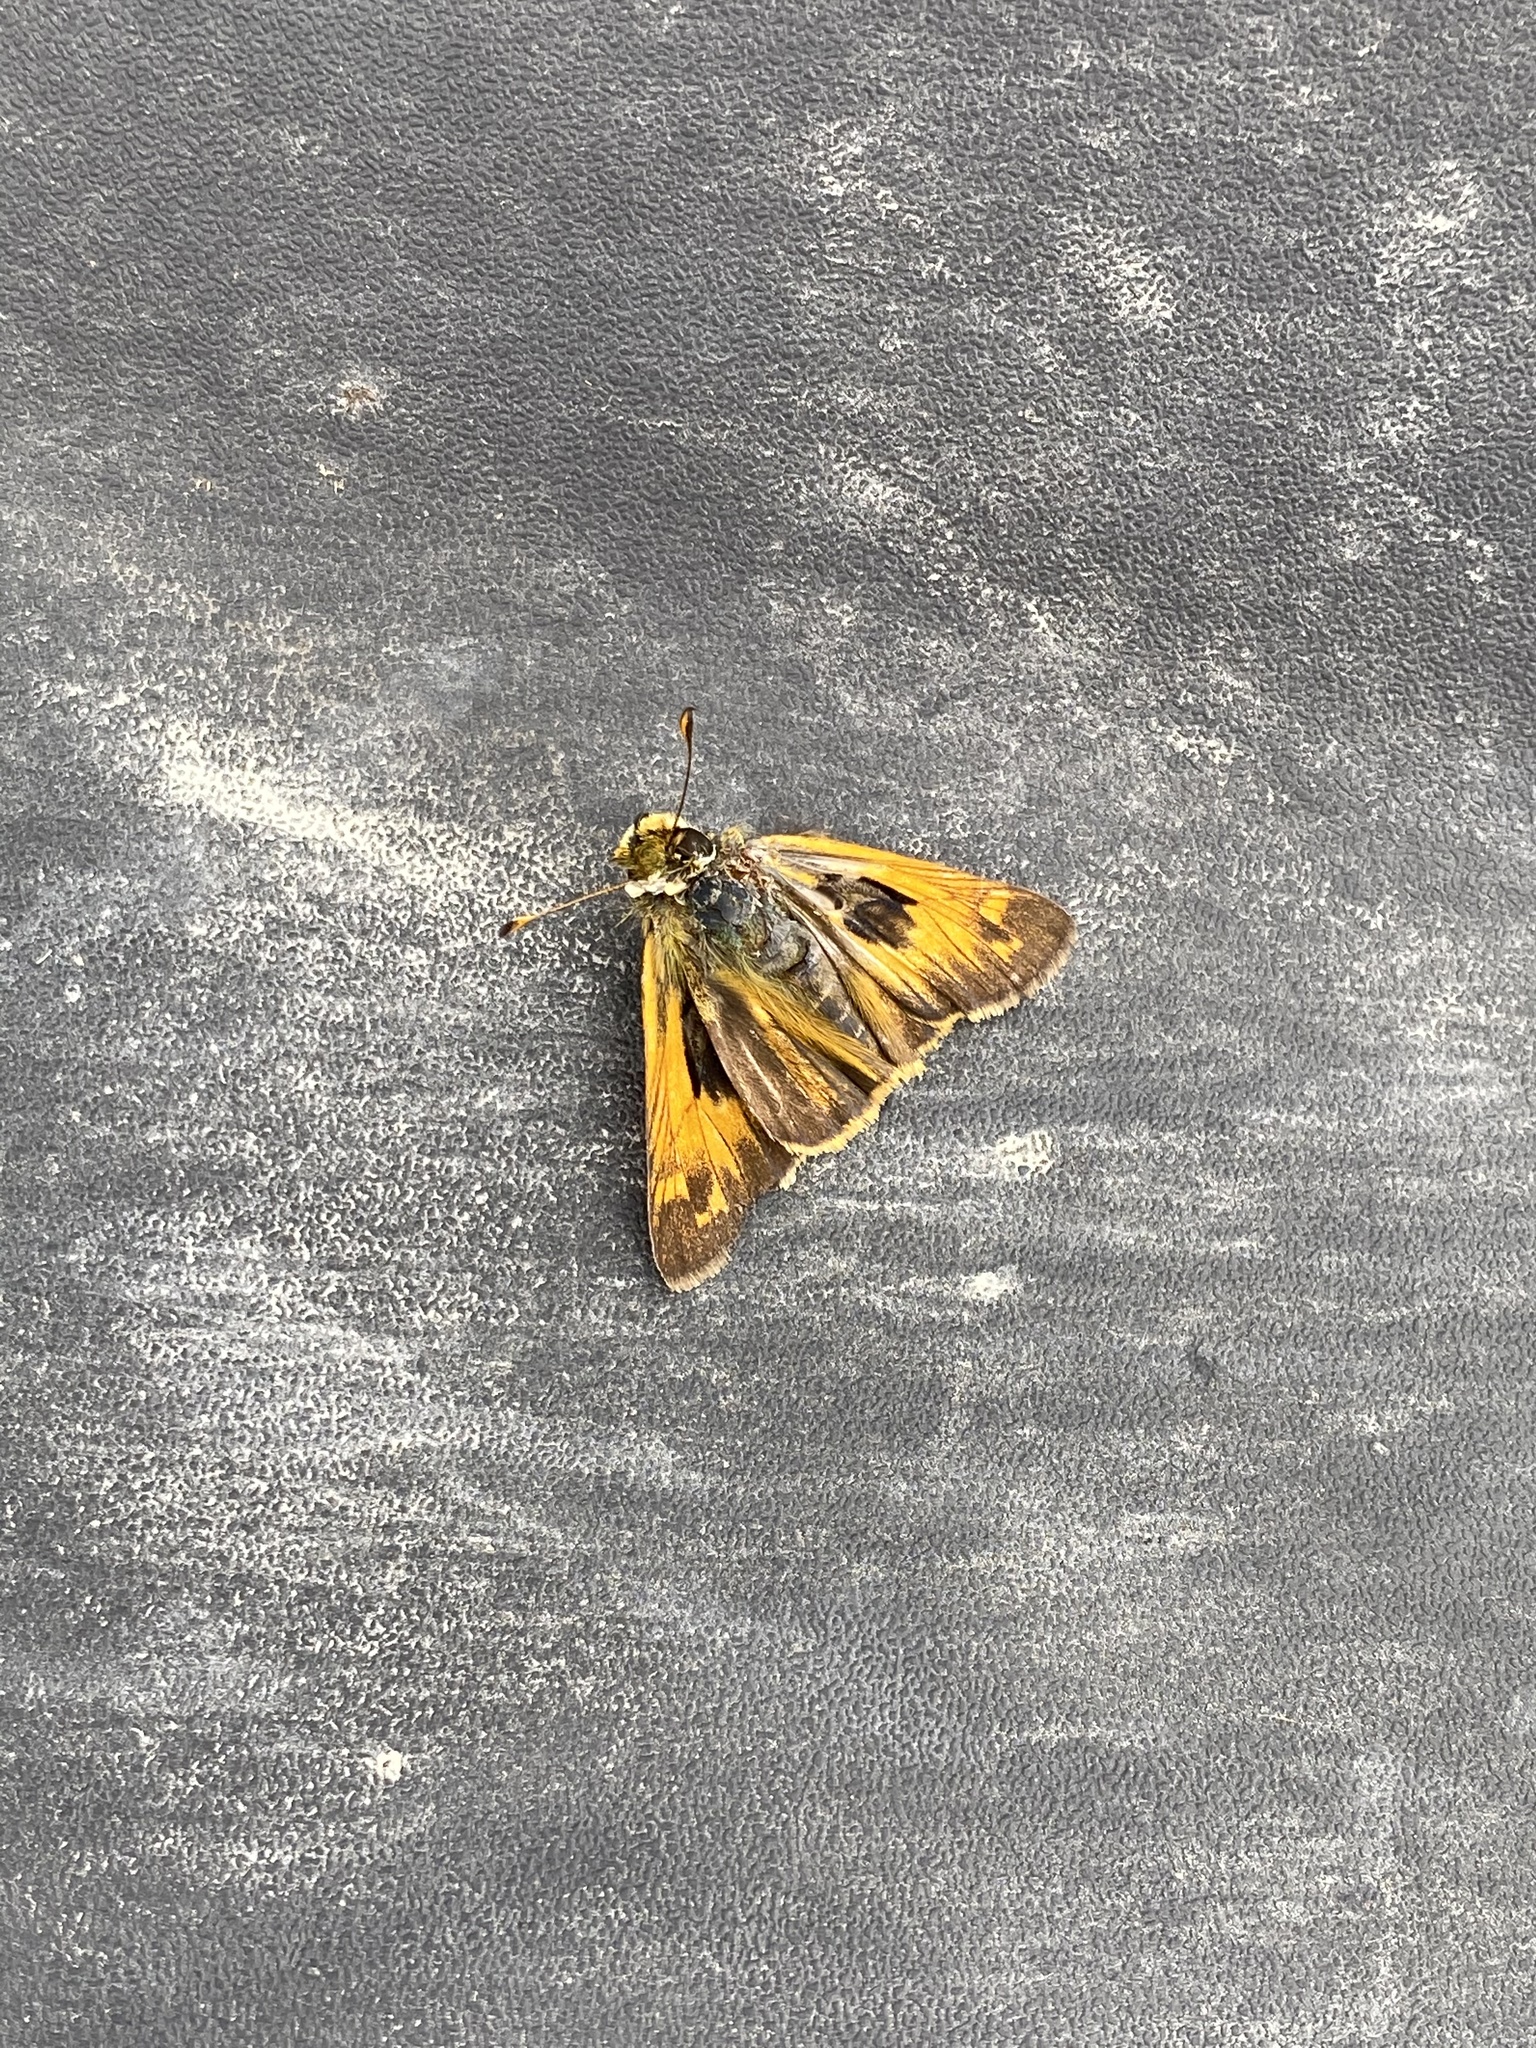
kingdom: Animalia
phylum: Arthropoda
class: Insecta
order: Lepidoptera
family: Hesperiidae
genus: Atalopedes
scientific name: Atalopedes
